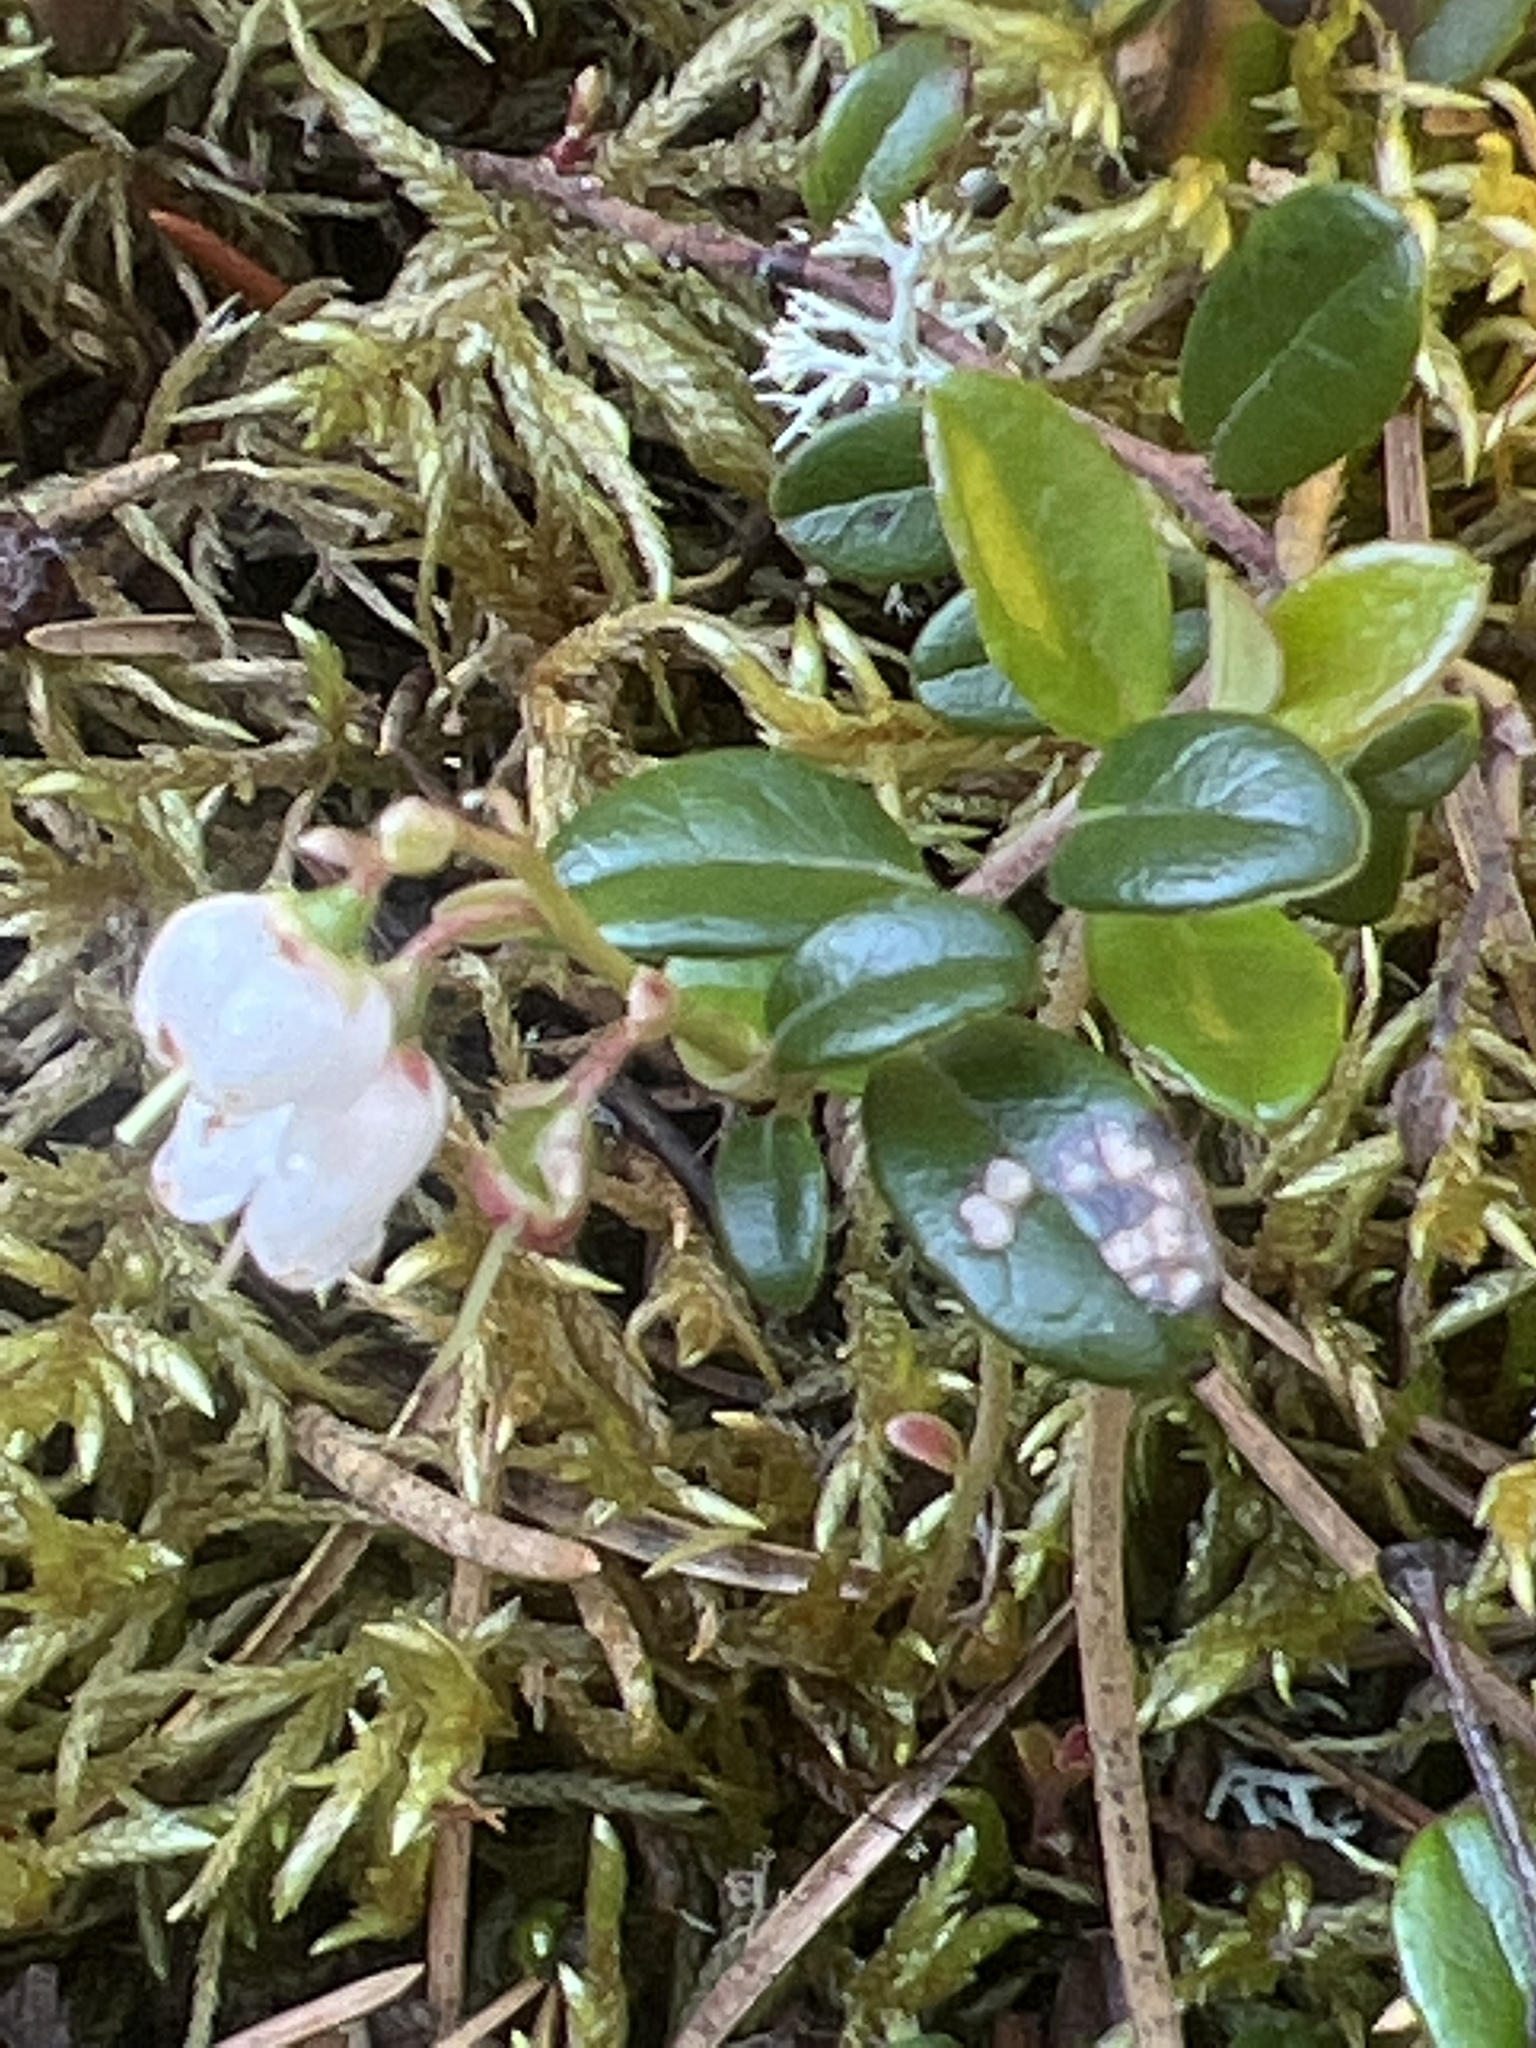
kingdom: Plantae
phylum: Tracheophyta
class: Magnoliopsida
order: Ericales
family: Ericaceae
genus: Vaccinium
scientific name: Vaccinium vitis-idaea
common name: Cowberry
